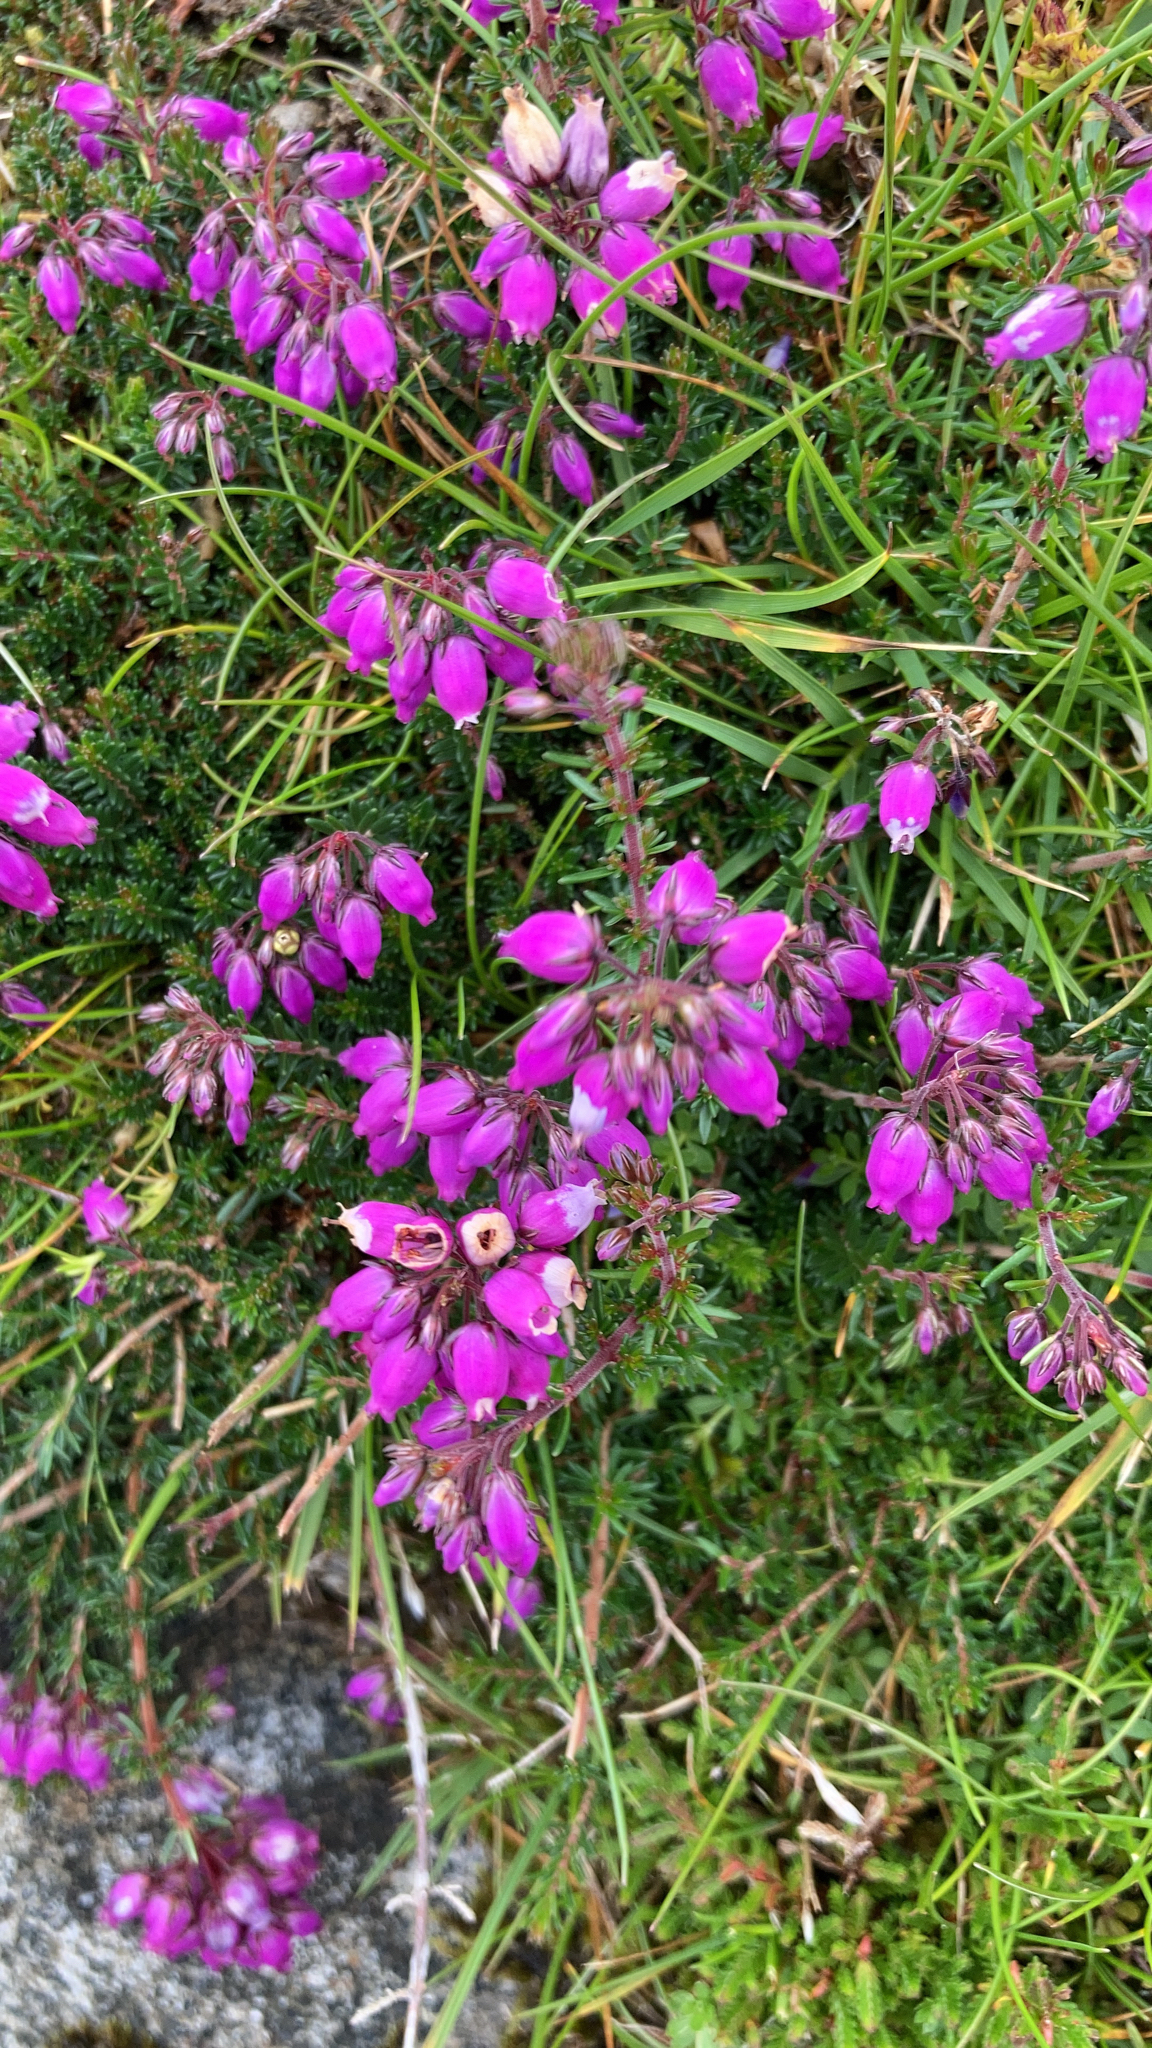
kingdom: Plantae
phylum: Tracheophyta
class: Magnoliopsida
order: Ericales
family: Ericaceae
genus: Erica
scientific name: Erica cinerea
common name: Bell heather
